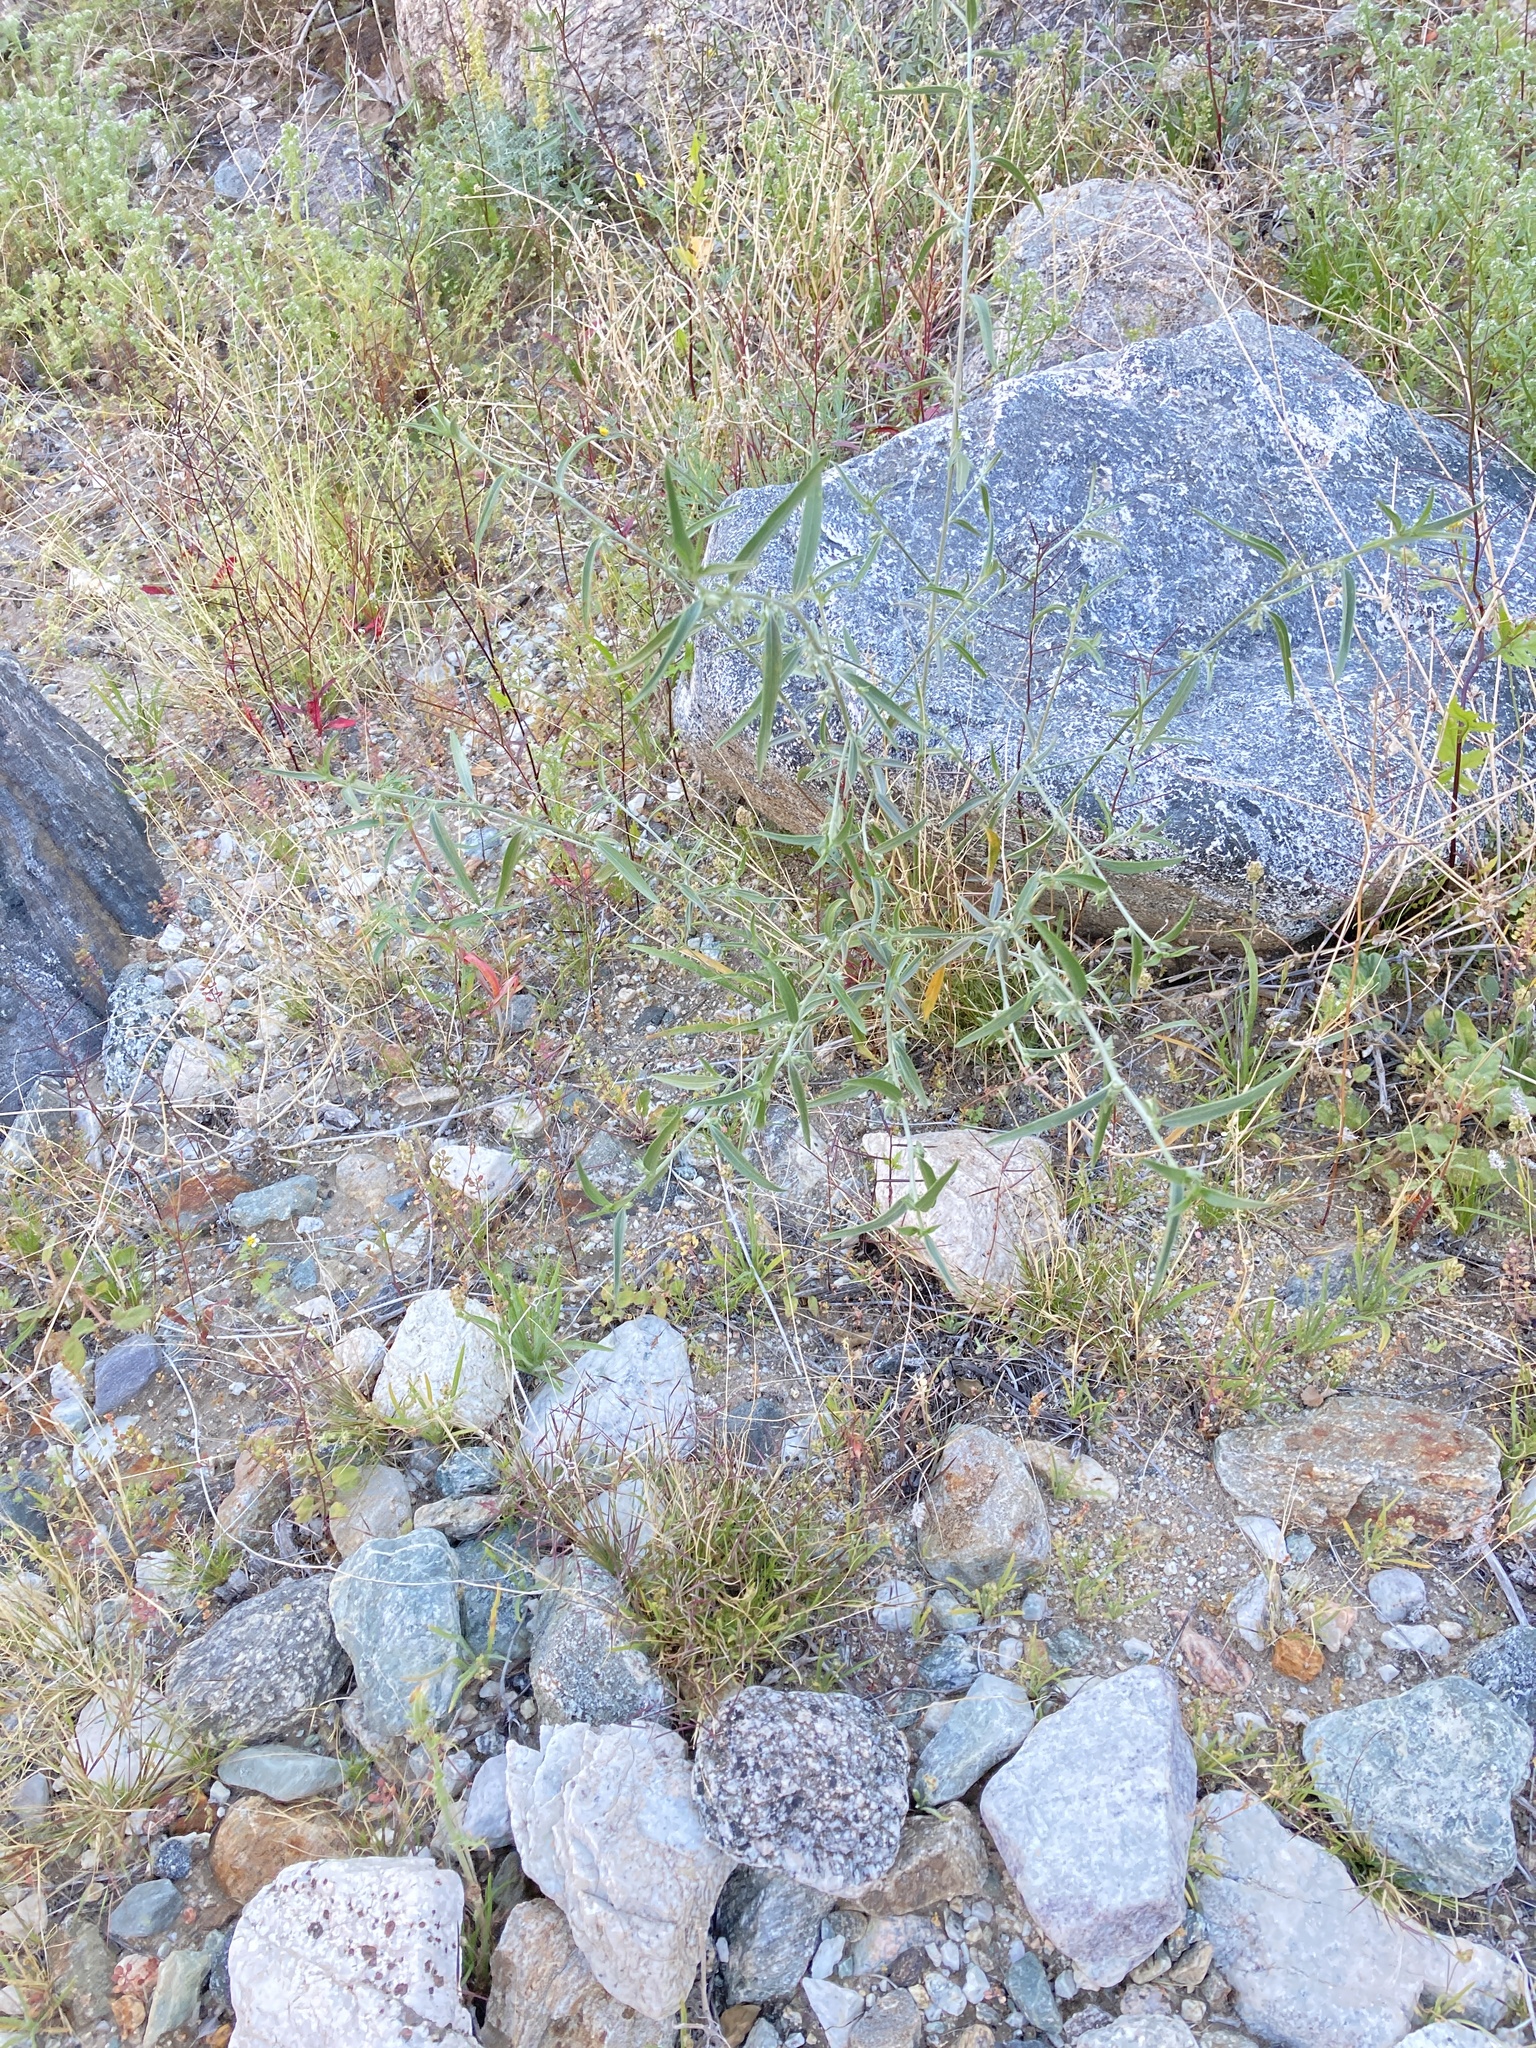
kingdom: Plantae
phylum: Tracheophyta
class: Magnoliopsida
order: Malpighiales
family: Euphorbiaceae
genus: Ditaxis
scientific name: Ditaxis lanceolata
